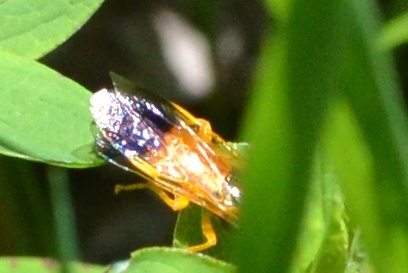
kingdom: Animalia
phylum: Arthropoda
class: Insecta
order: Hymenoptera
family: Pamphiliidae
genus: Pamphilius
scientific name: Pamphilius festivus
